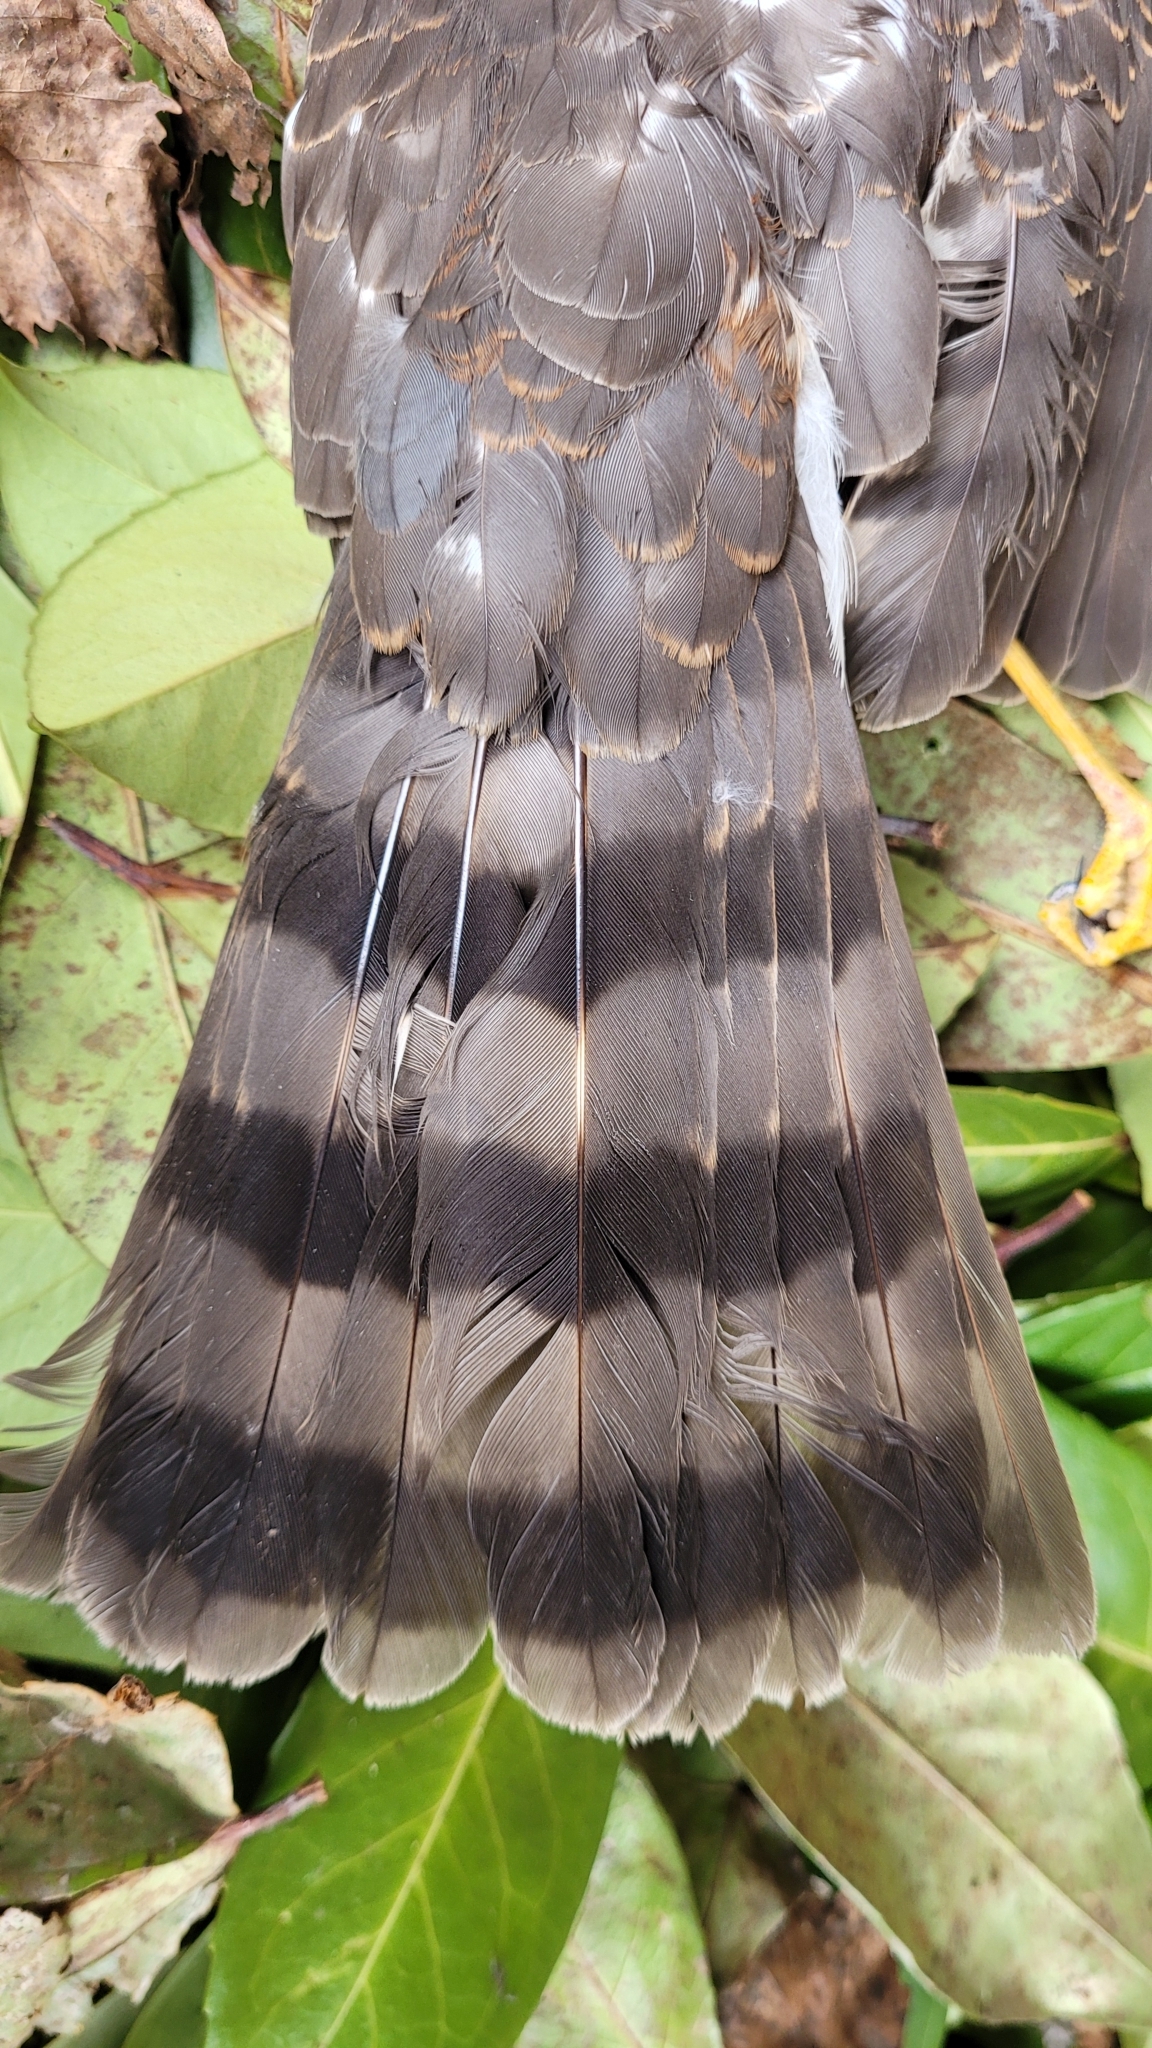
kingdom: Animalia
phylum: Chordata
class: Aves
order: Accipitriformes
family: Accipitridae
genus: Accipiter
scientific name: Accipiter striatus
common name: Sharp-shinned hawk
